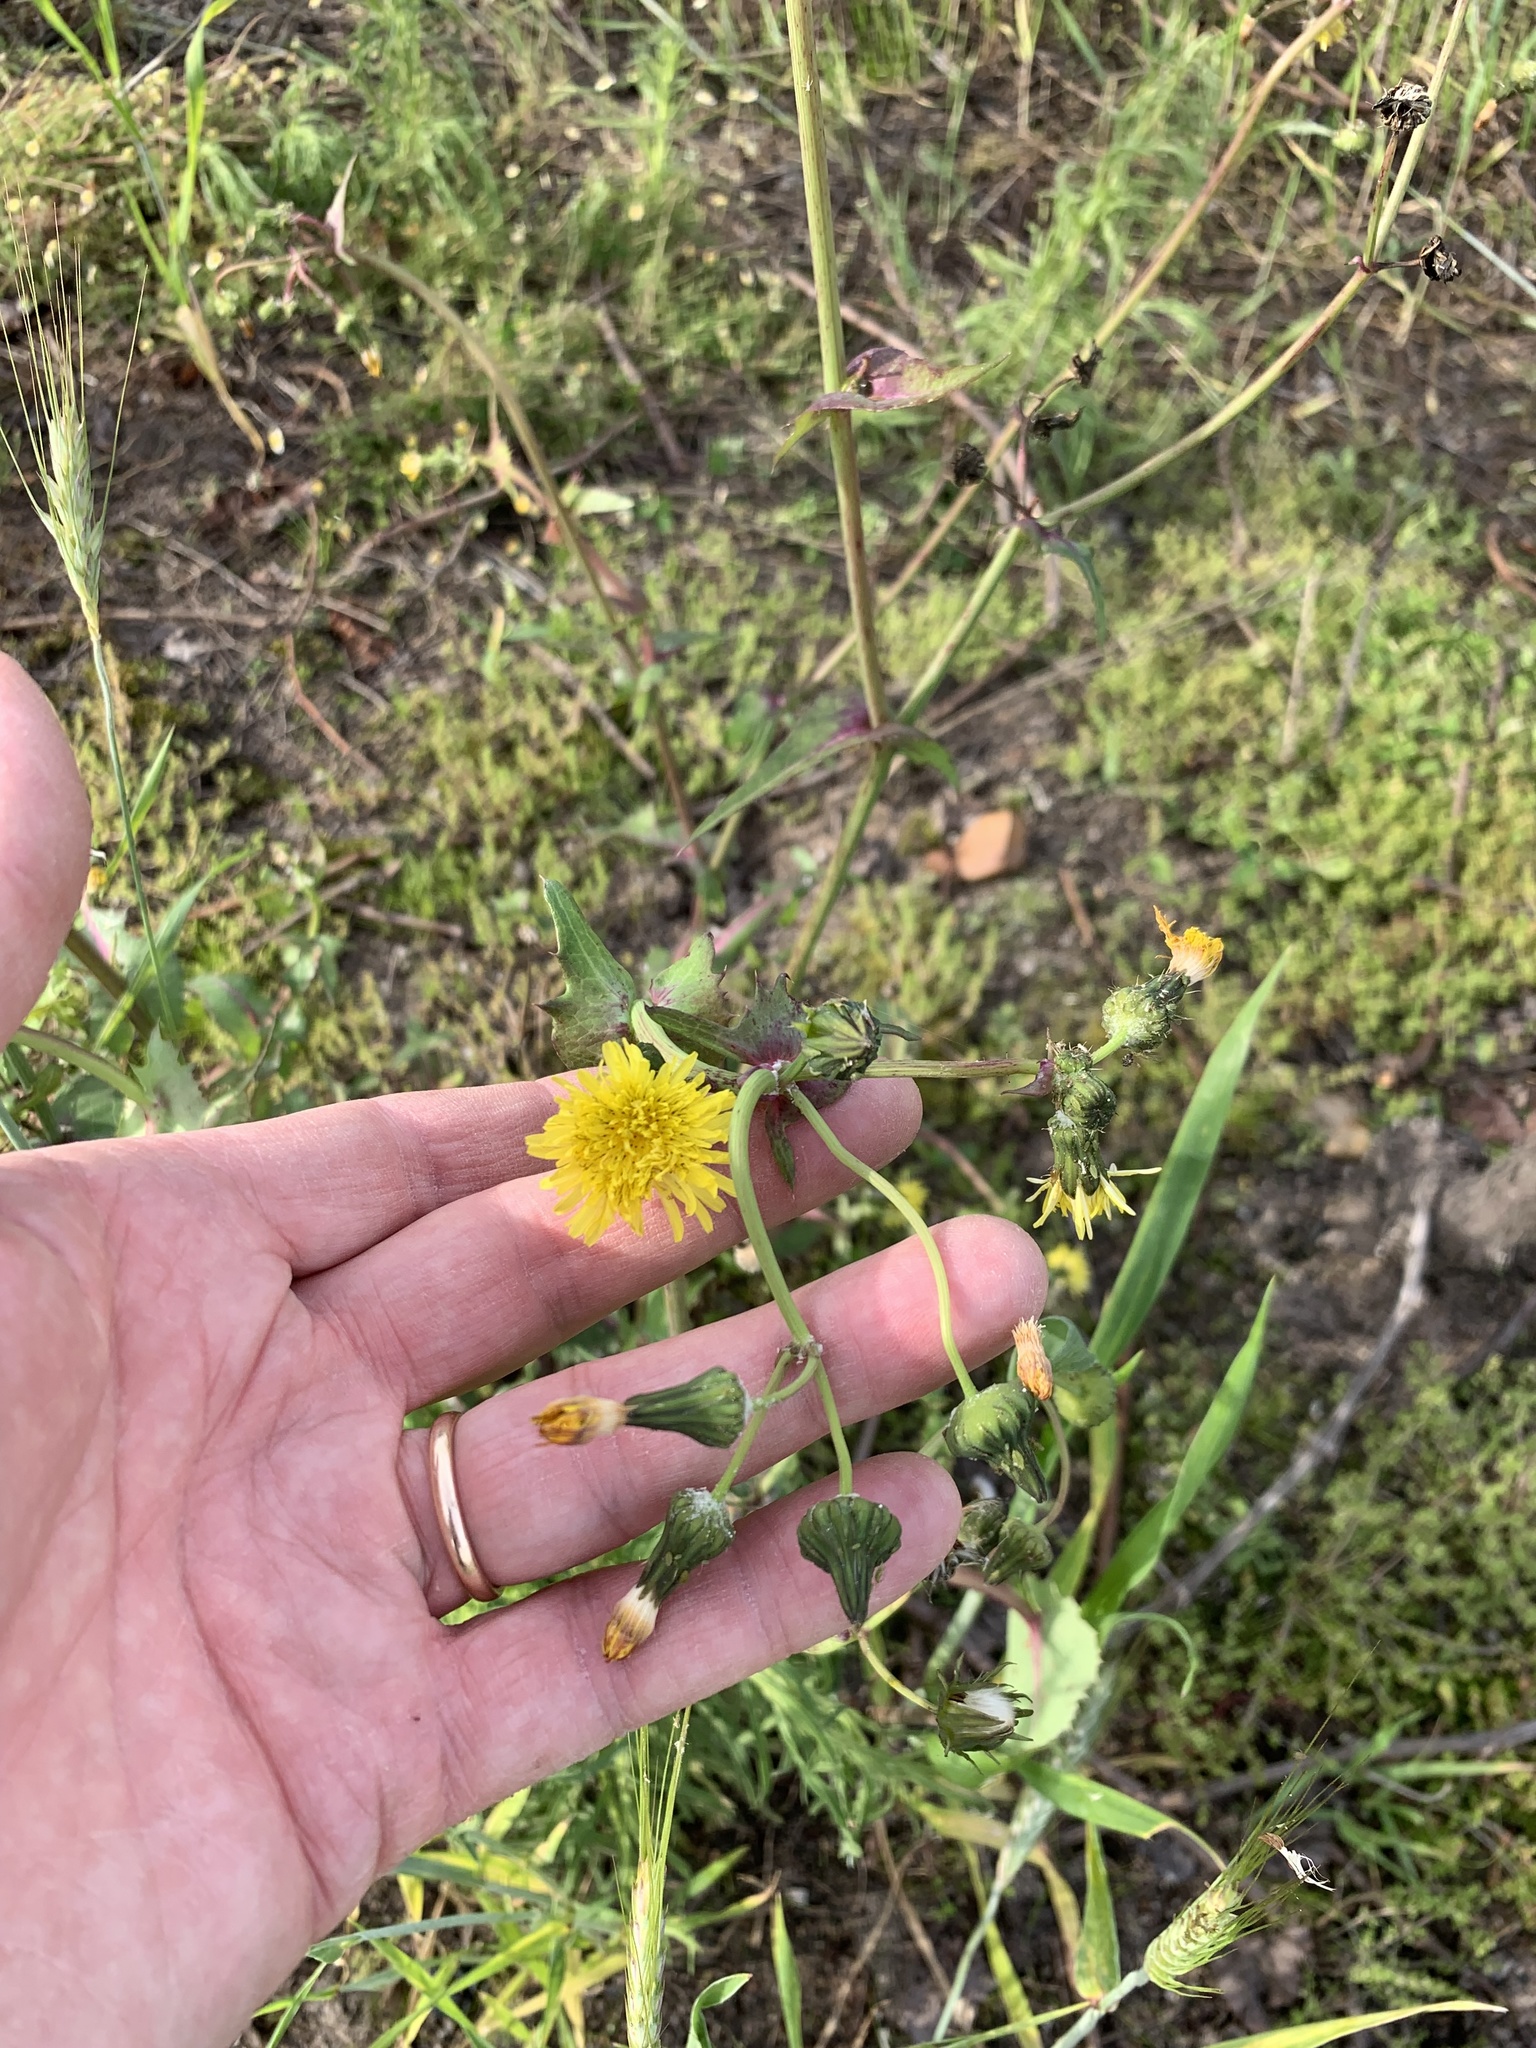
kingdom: Plantae
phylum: Tracheophyta
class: Magnoliopsida
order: Asterales
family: Asteraceae
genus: Sonchus
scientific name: Sonchus oleraceus
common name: Common sowthistle
